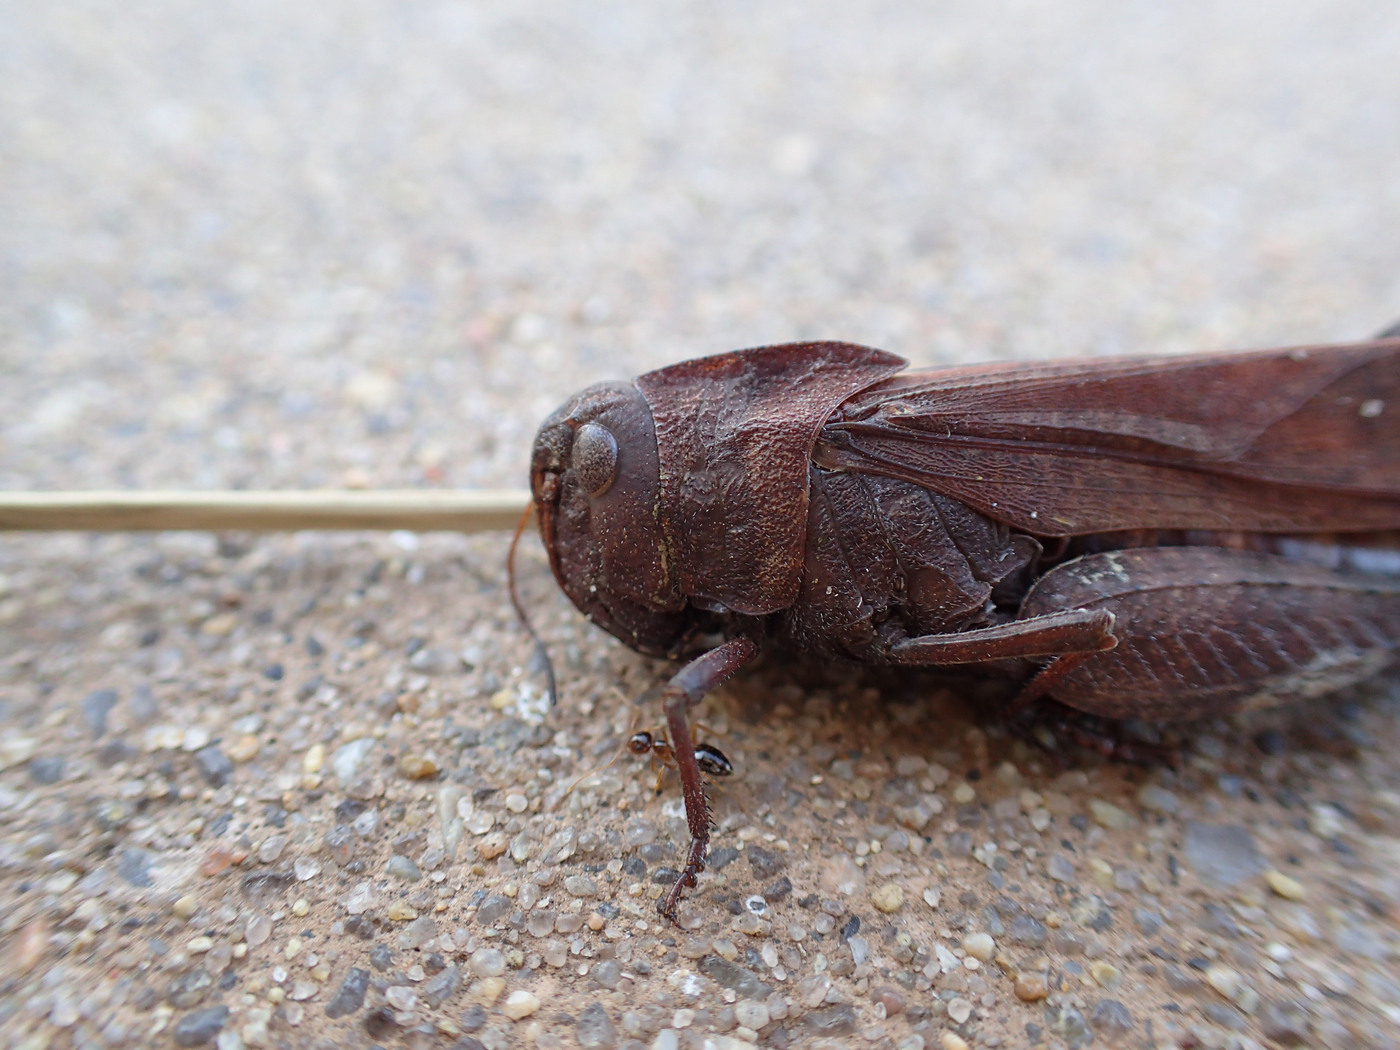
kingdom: Animalia
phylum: Arthropoda
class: Insecta
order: Orthoptera
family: Acrididae
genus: Arphia
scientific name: Arphia xanthoptera
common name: Autumn yellow-winged grasshopper
